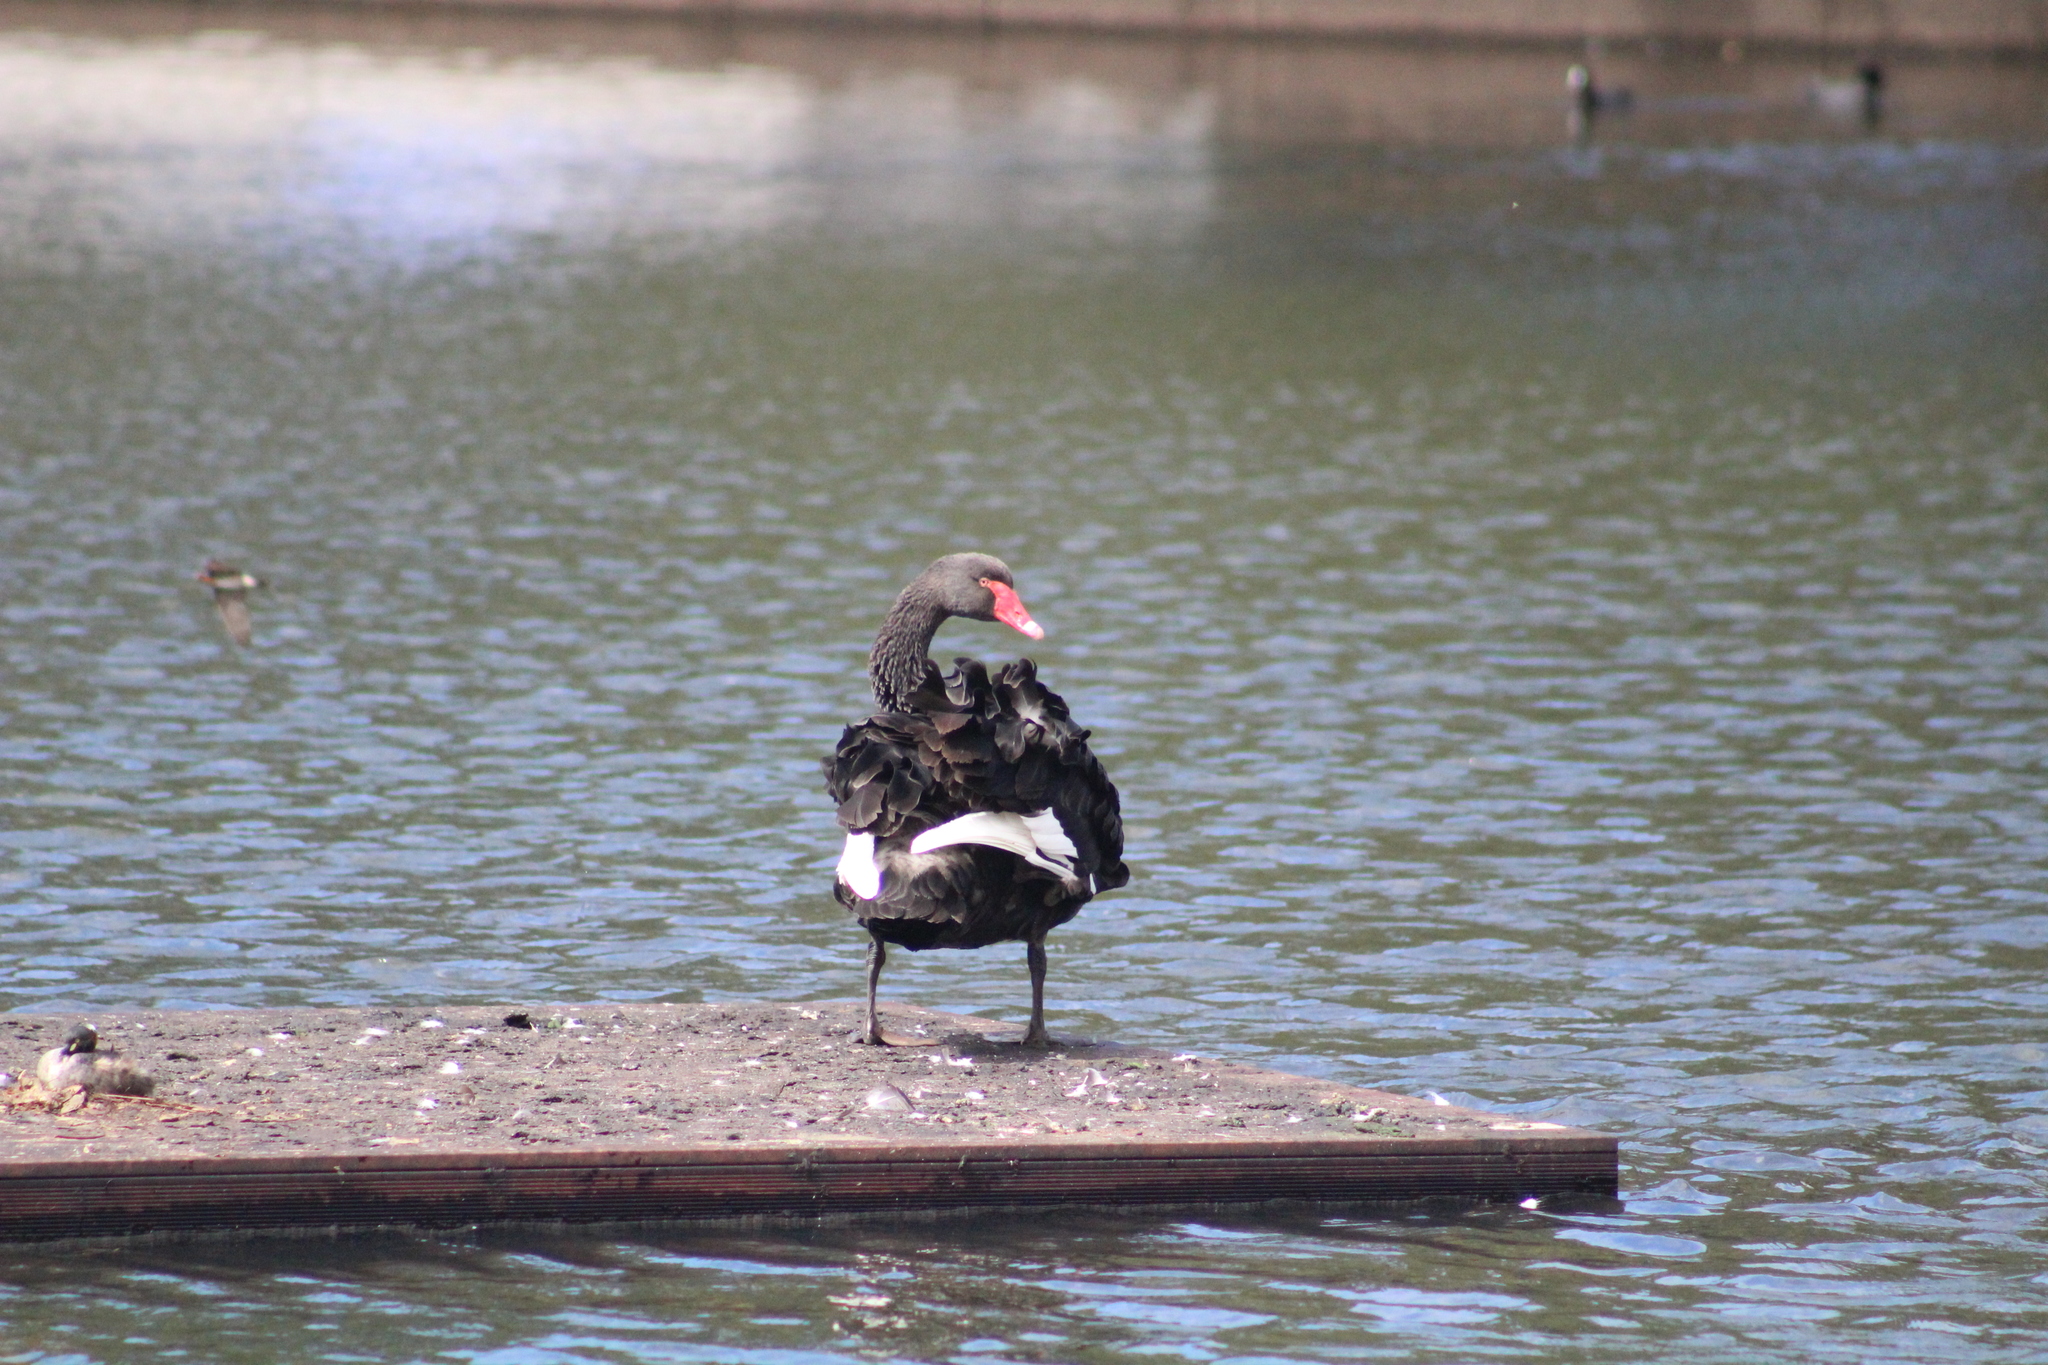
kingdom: Animalia
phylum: Chordata
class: Aves
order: Anseriformes
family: Anatidae
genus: Cygnus
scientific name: Cygnus atratus
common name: Black swan
